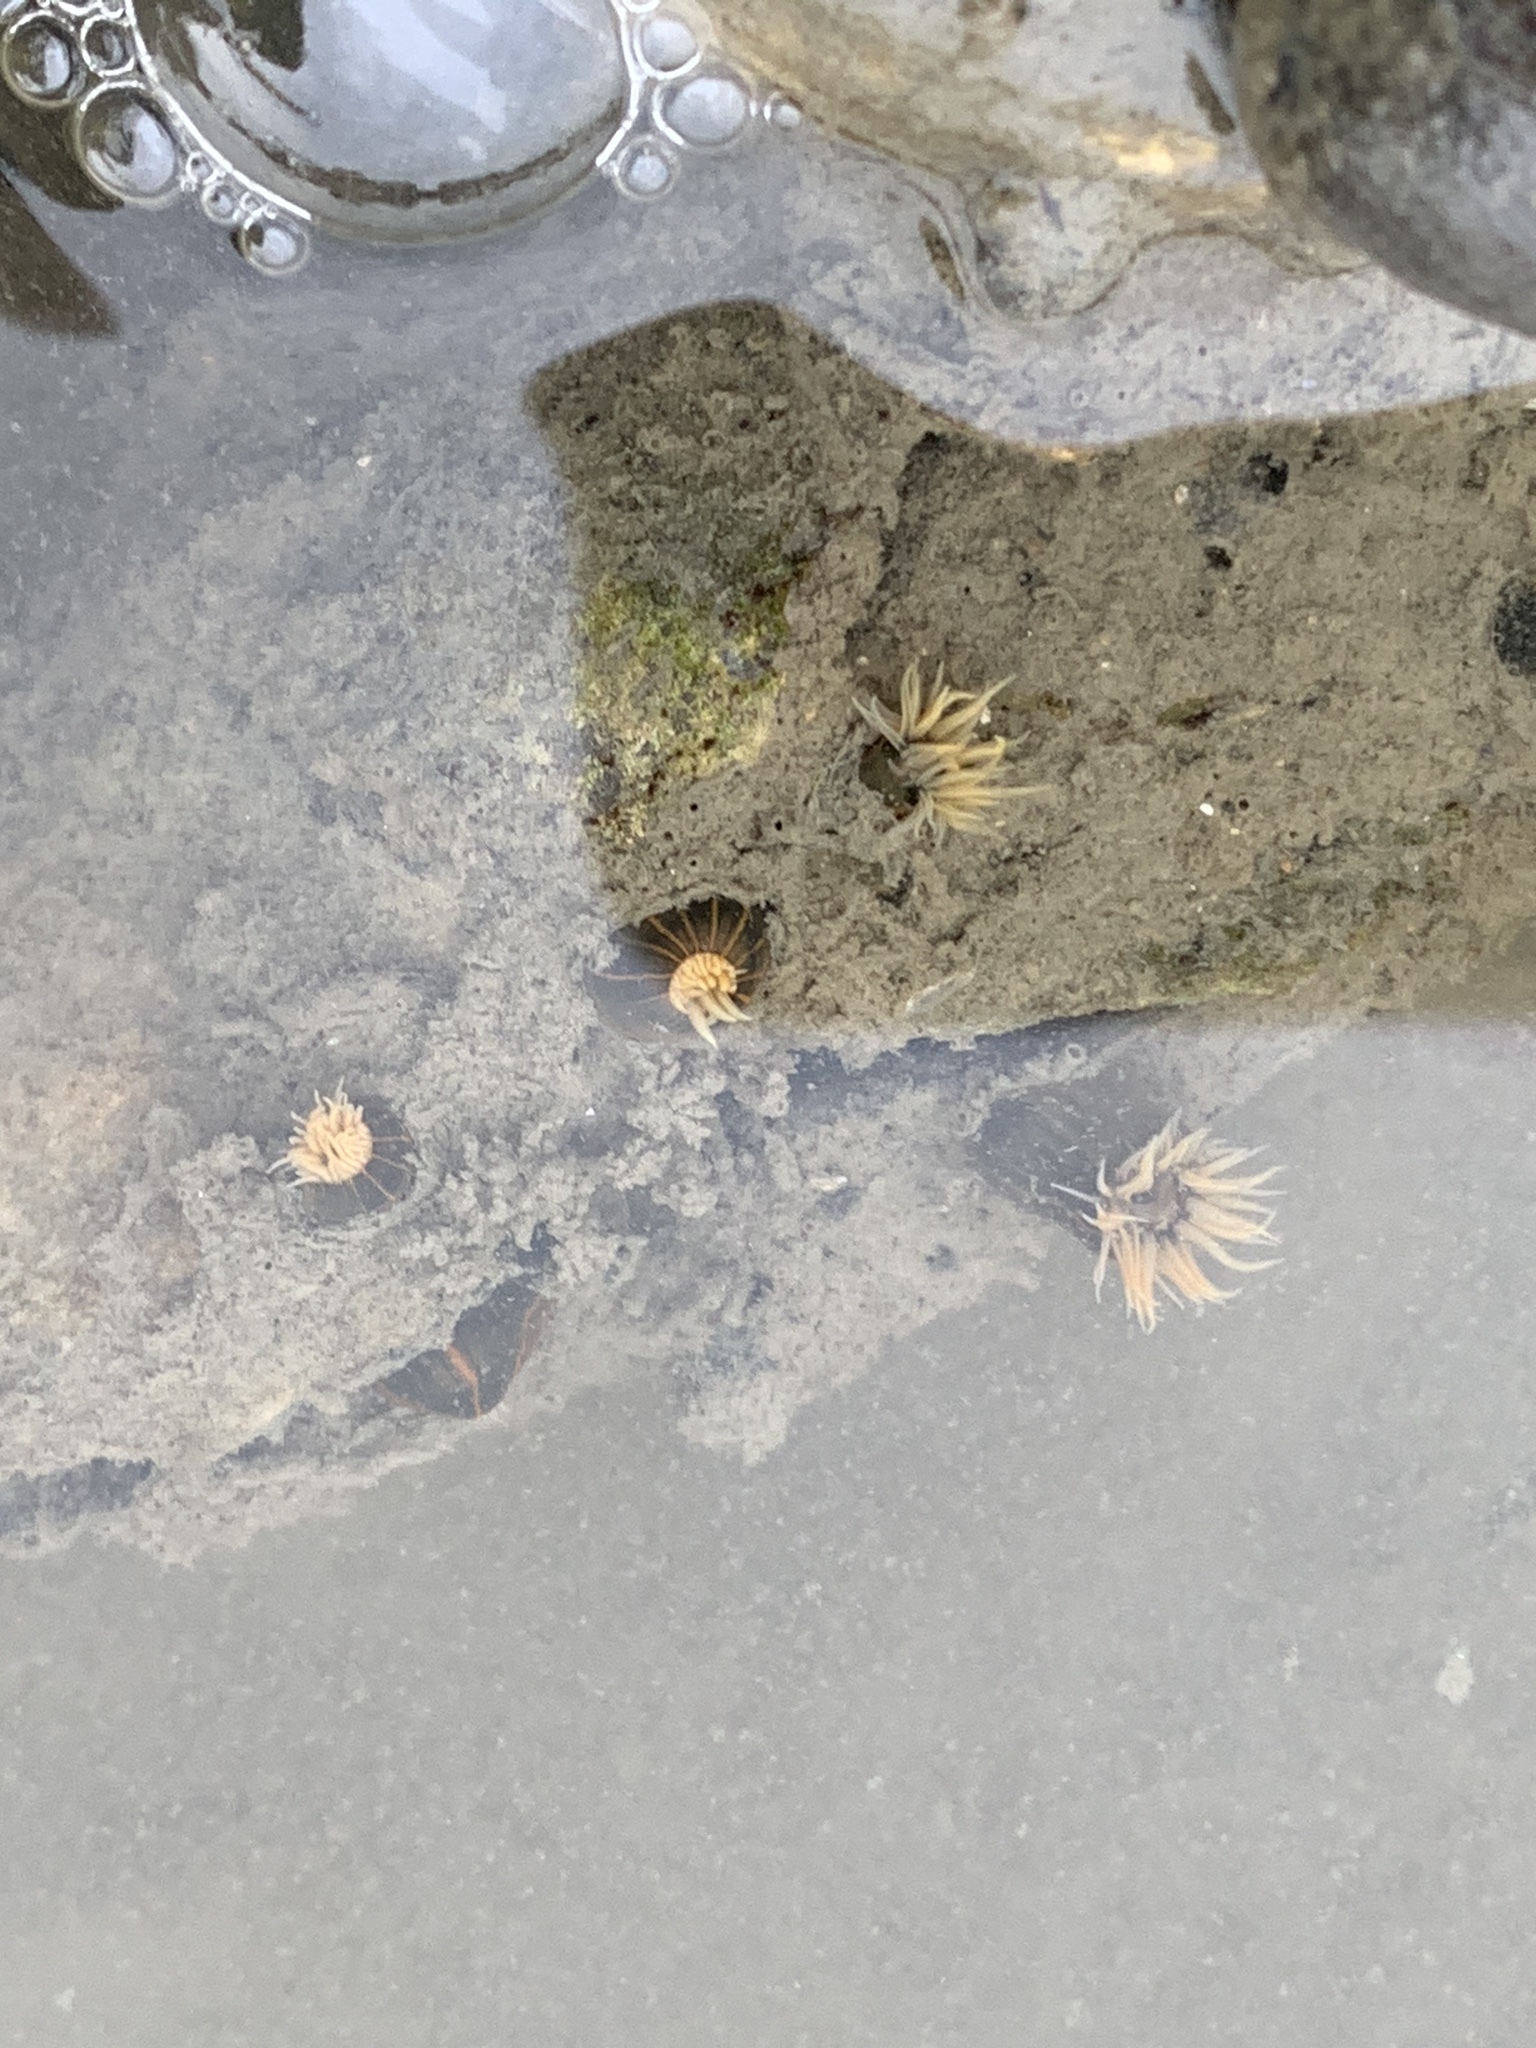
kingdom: Animalia
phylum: Cnidaria
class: Anthozoa
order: Actiniaria
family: Diadumenidae
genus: Diadumene
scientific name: Diadumene lineata
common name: Orange-striped anemone
